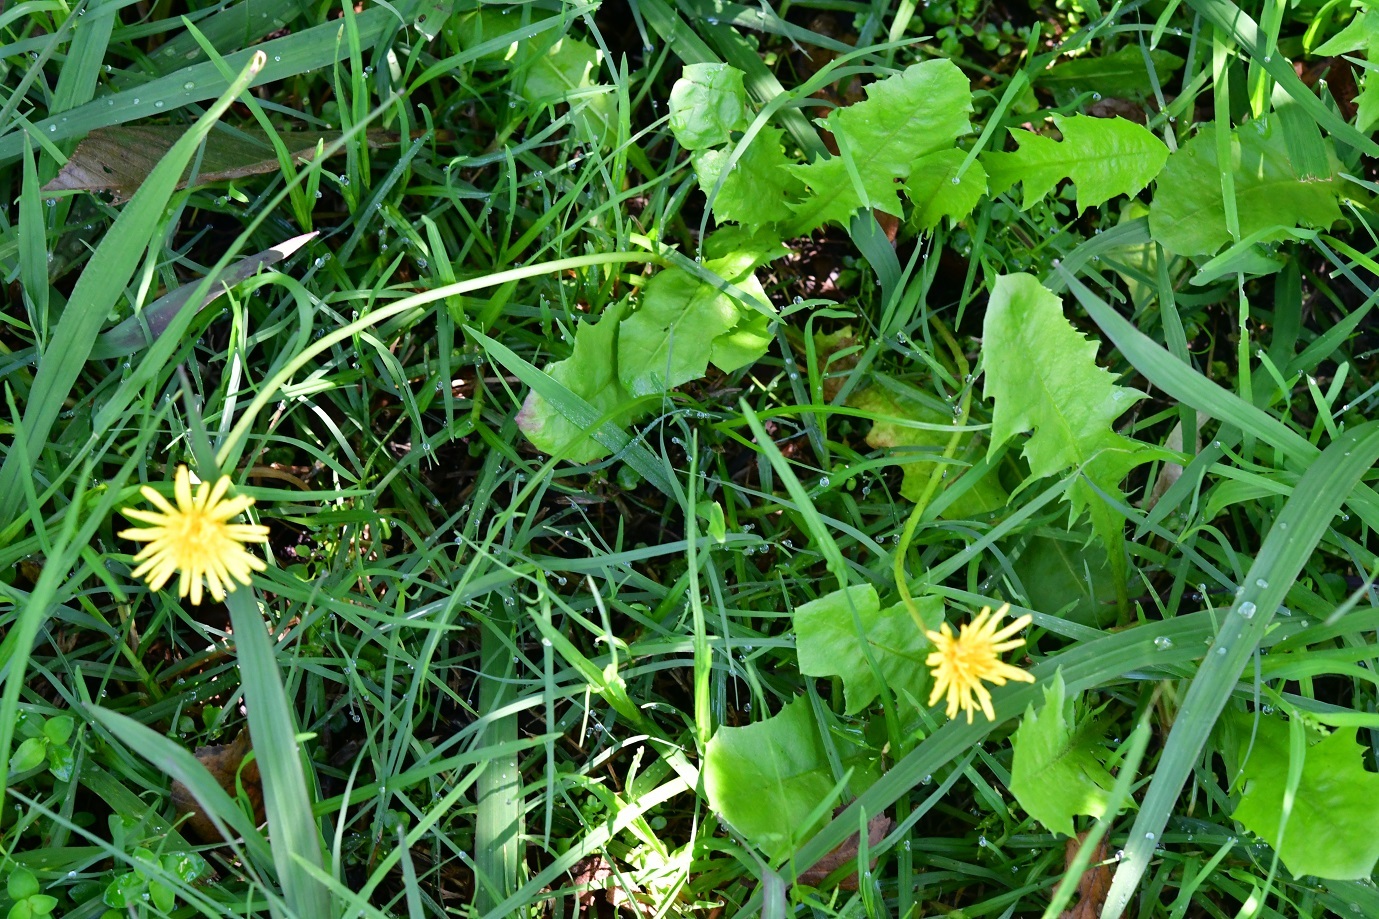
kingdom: Plantae
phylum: Tracheophyta
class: Magnoliopsida
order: Asterales
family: Asteraceae
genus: Taraxacum
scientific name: Taraxacum officinale
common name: Common dandelion
